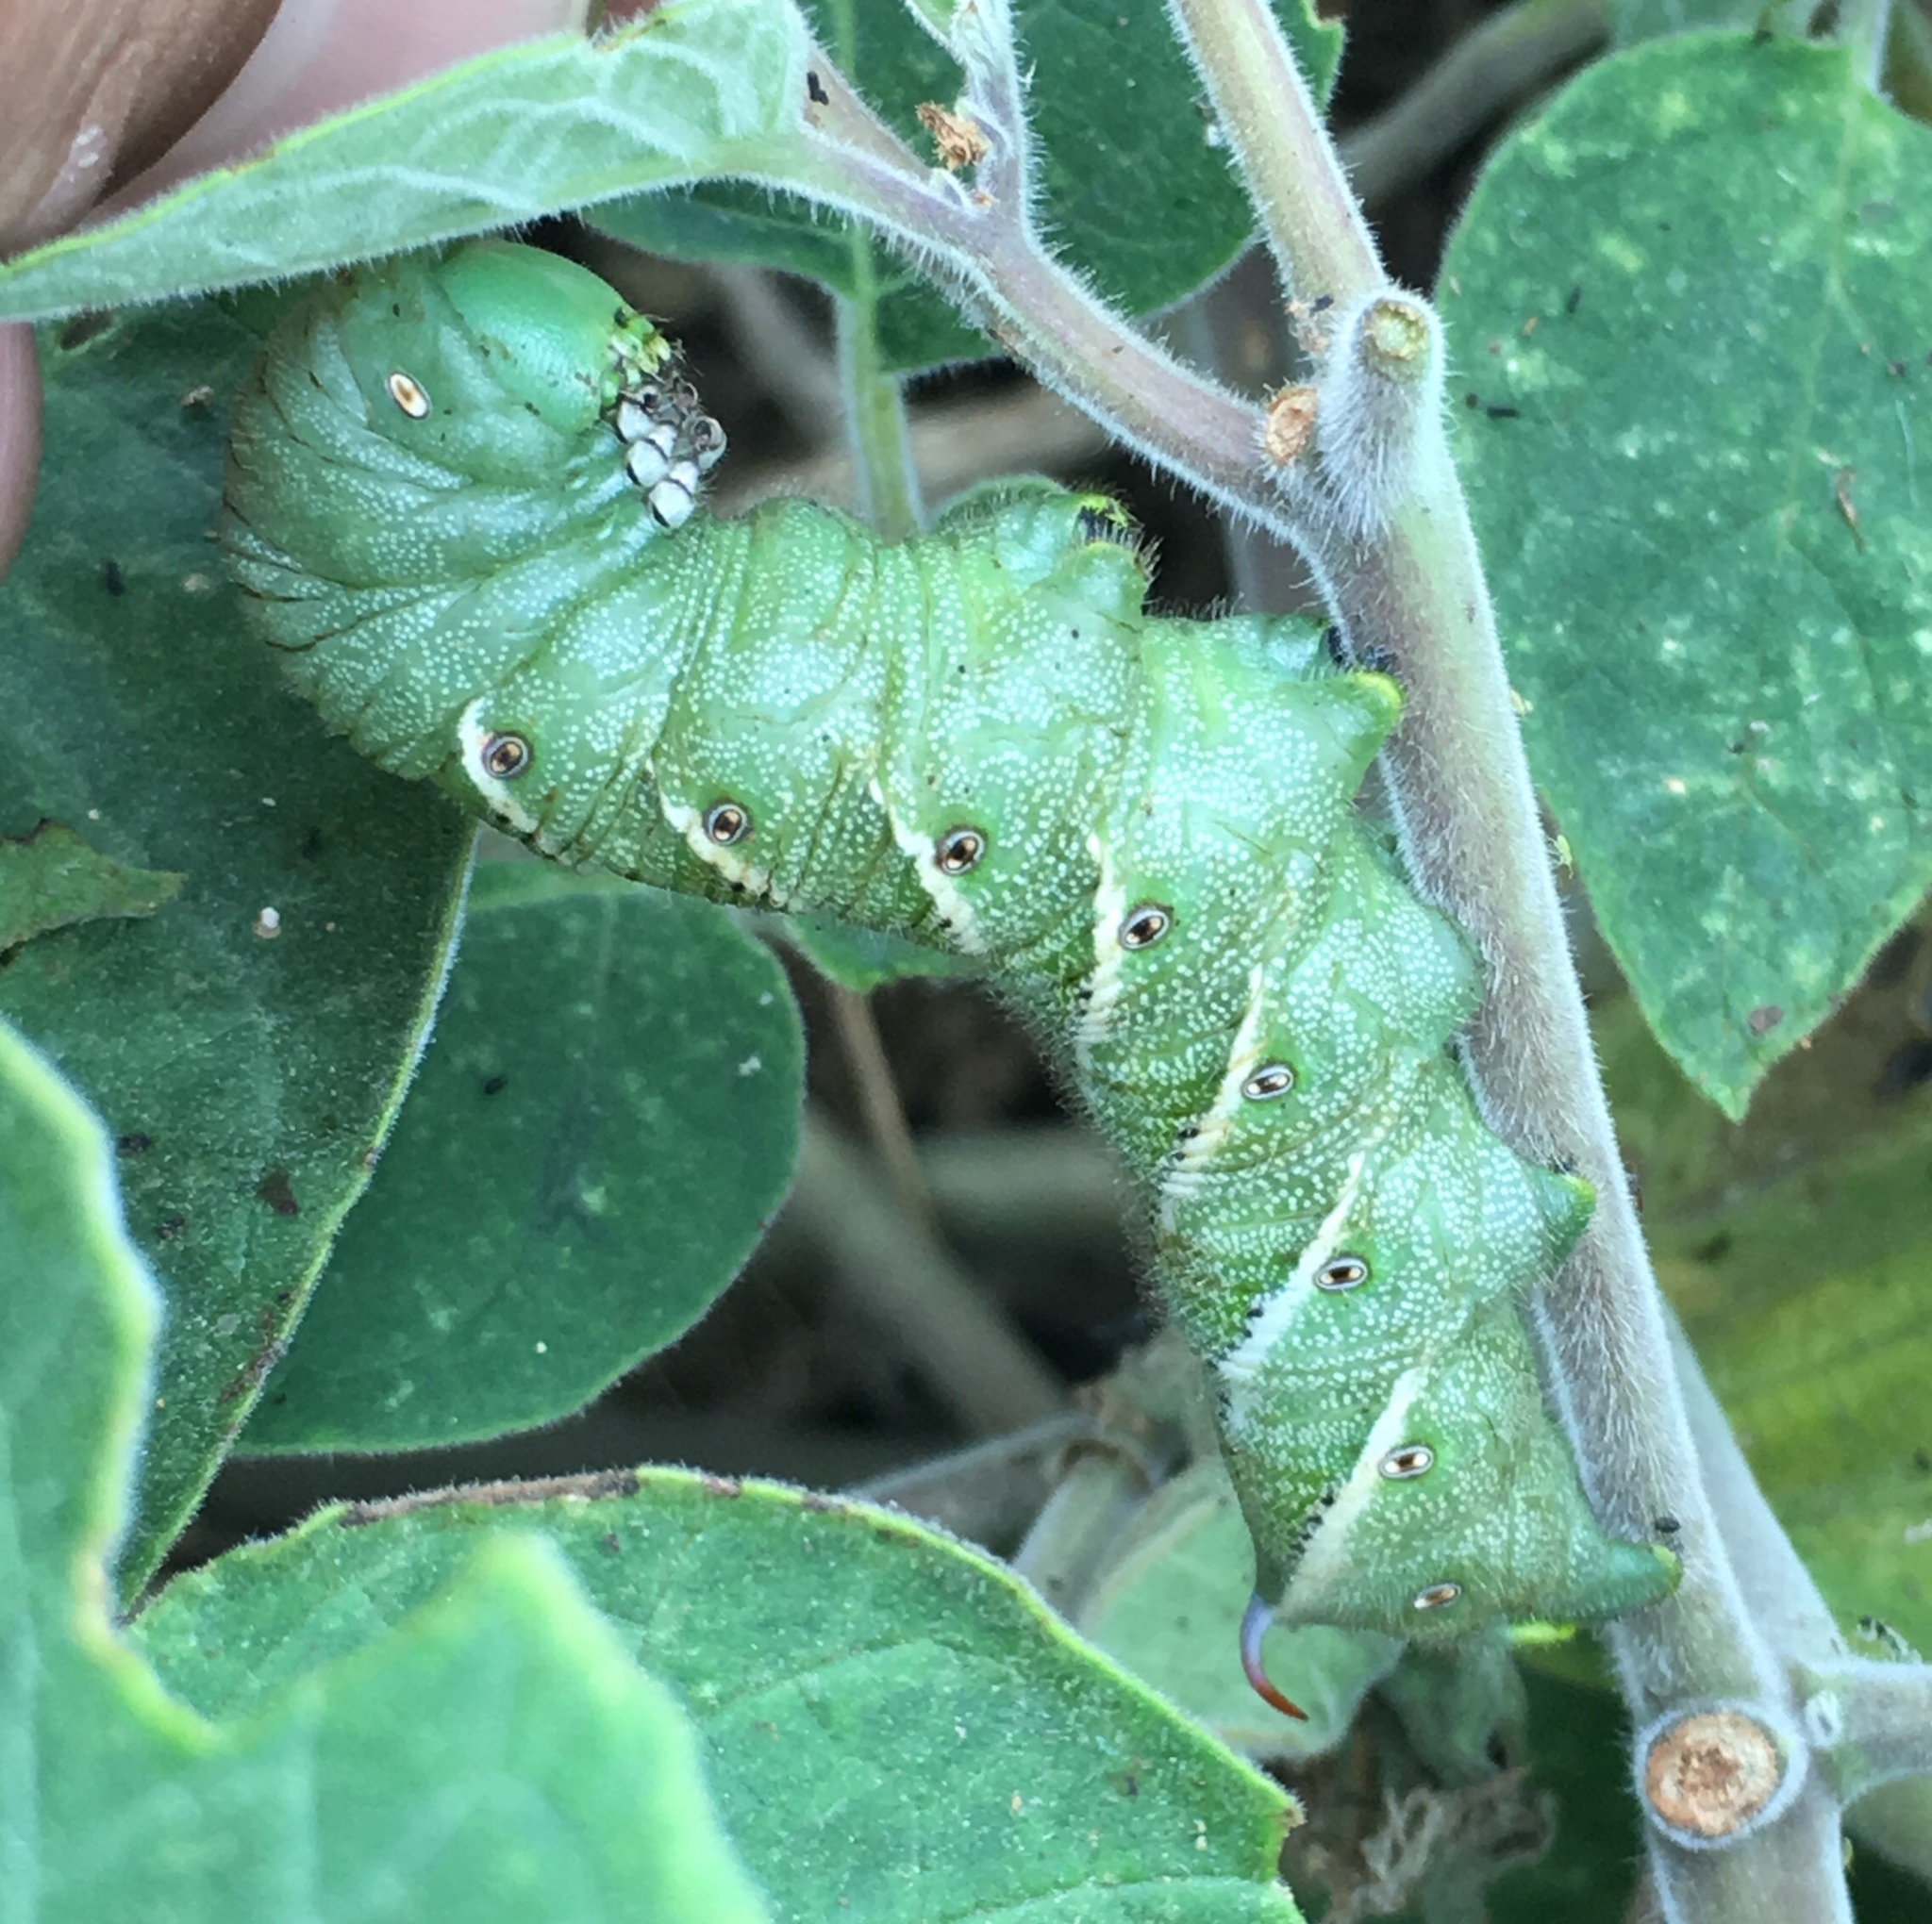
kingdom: Animalia
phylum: Arthropoda
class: Insecta
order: Lepidoptera
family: Sphingidae
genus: Manduca
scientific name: Manduca sexta
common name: Carolina sphinx
